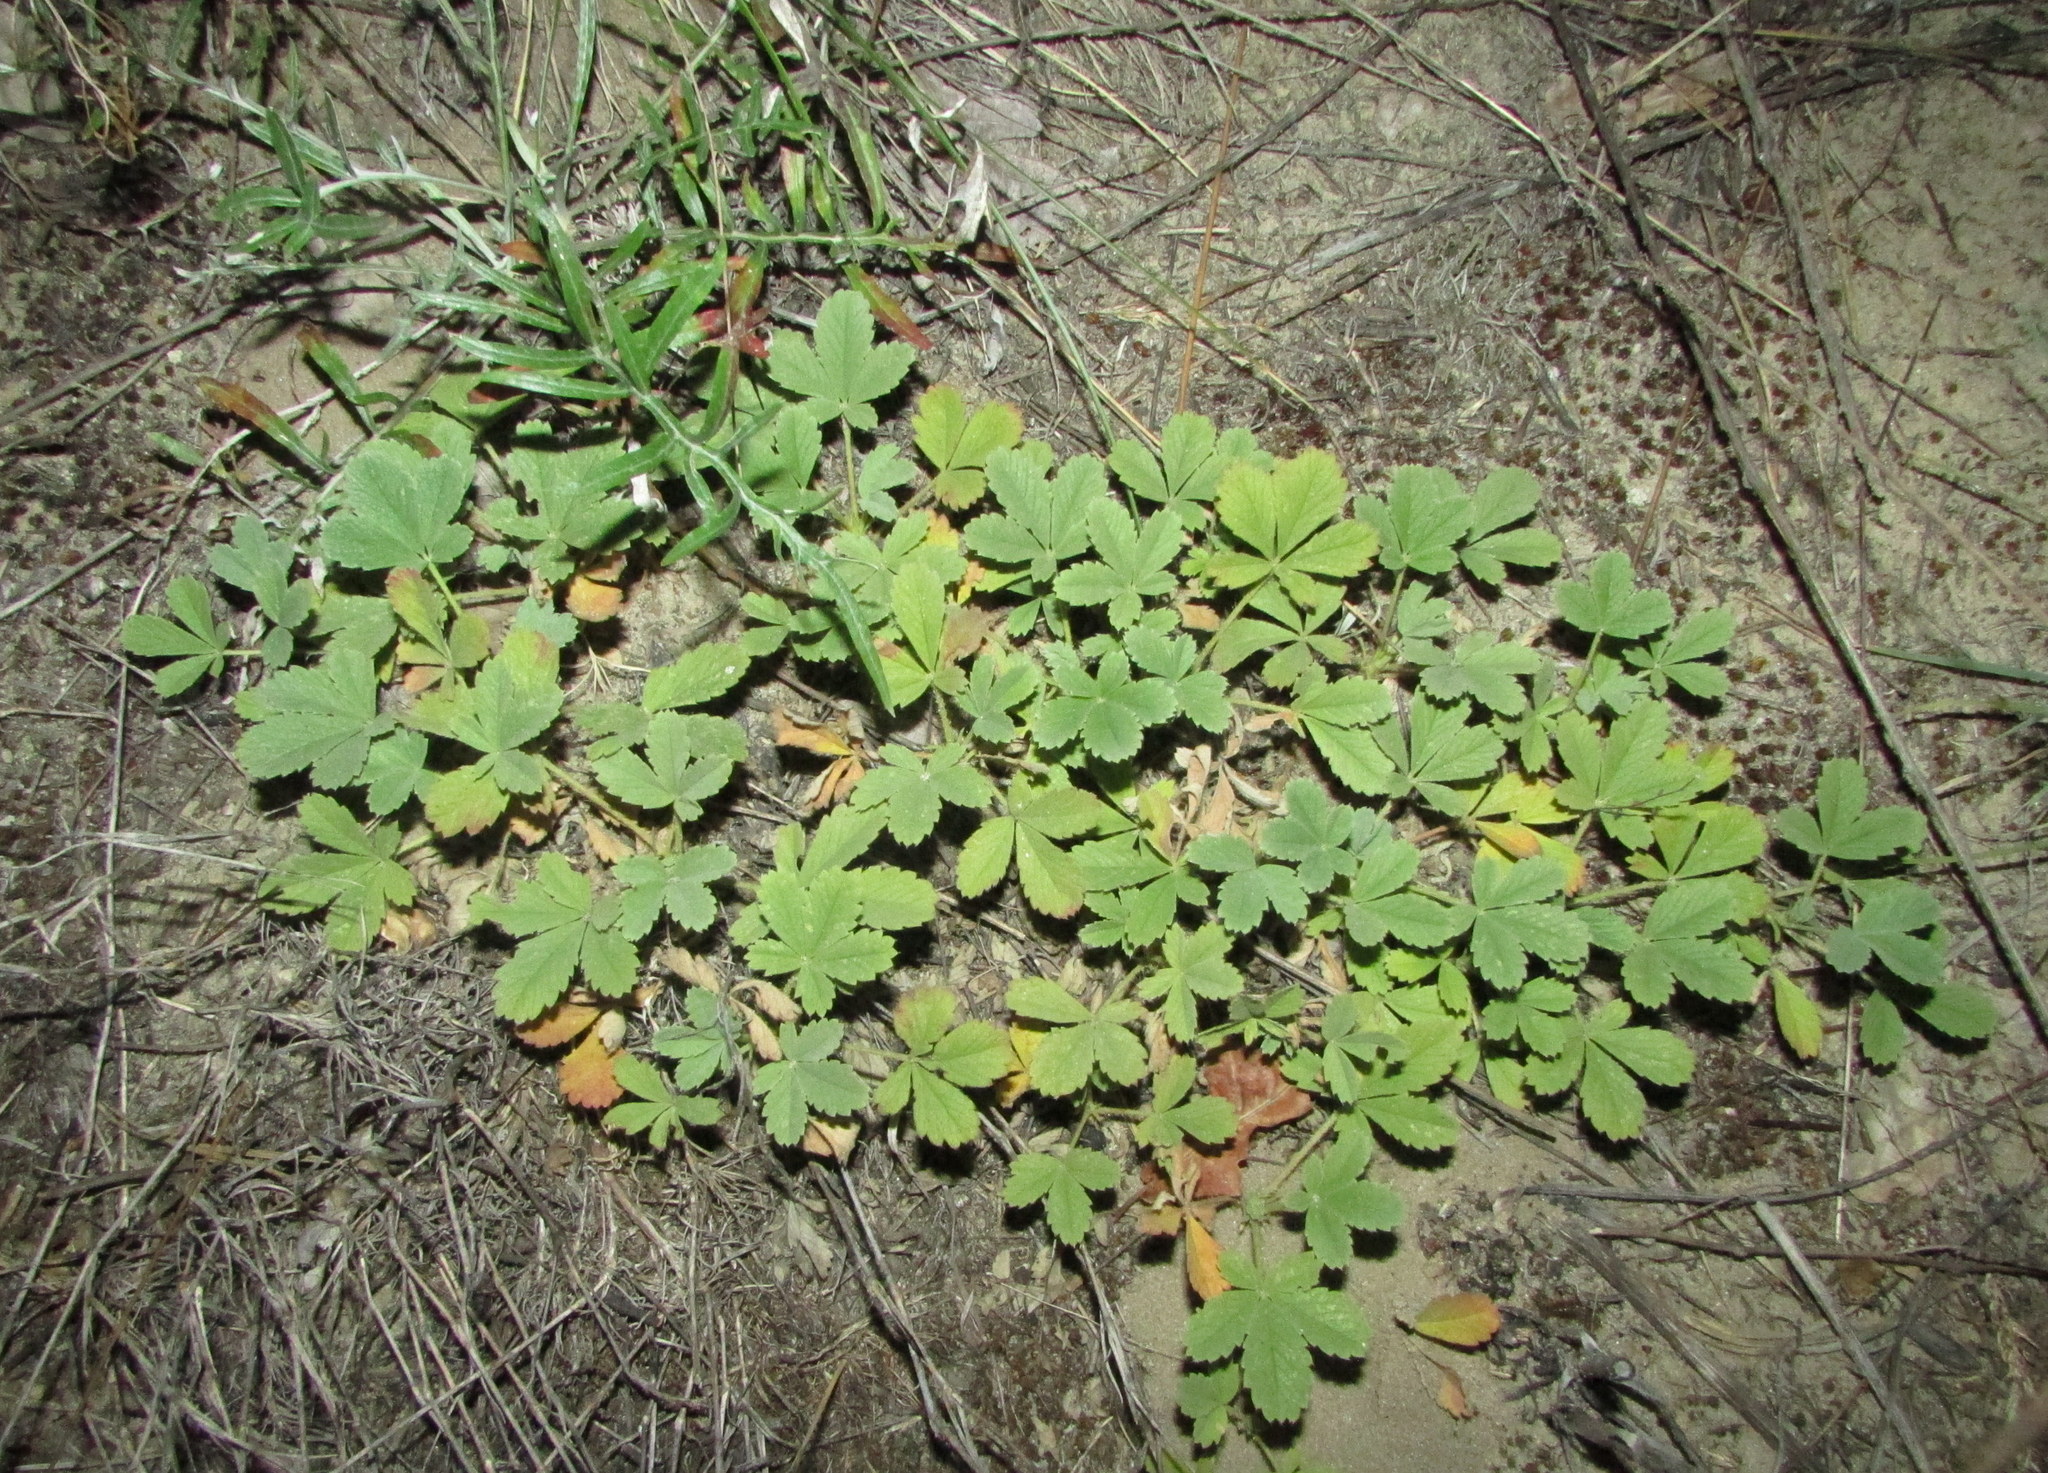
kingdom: Plantae
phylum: Tracheophyta
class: Magnoliopsida
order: Rosales
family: Rosaceae
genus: Potentilla
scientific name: Potentilla incana
